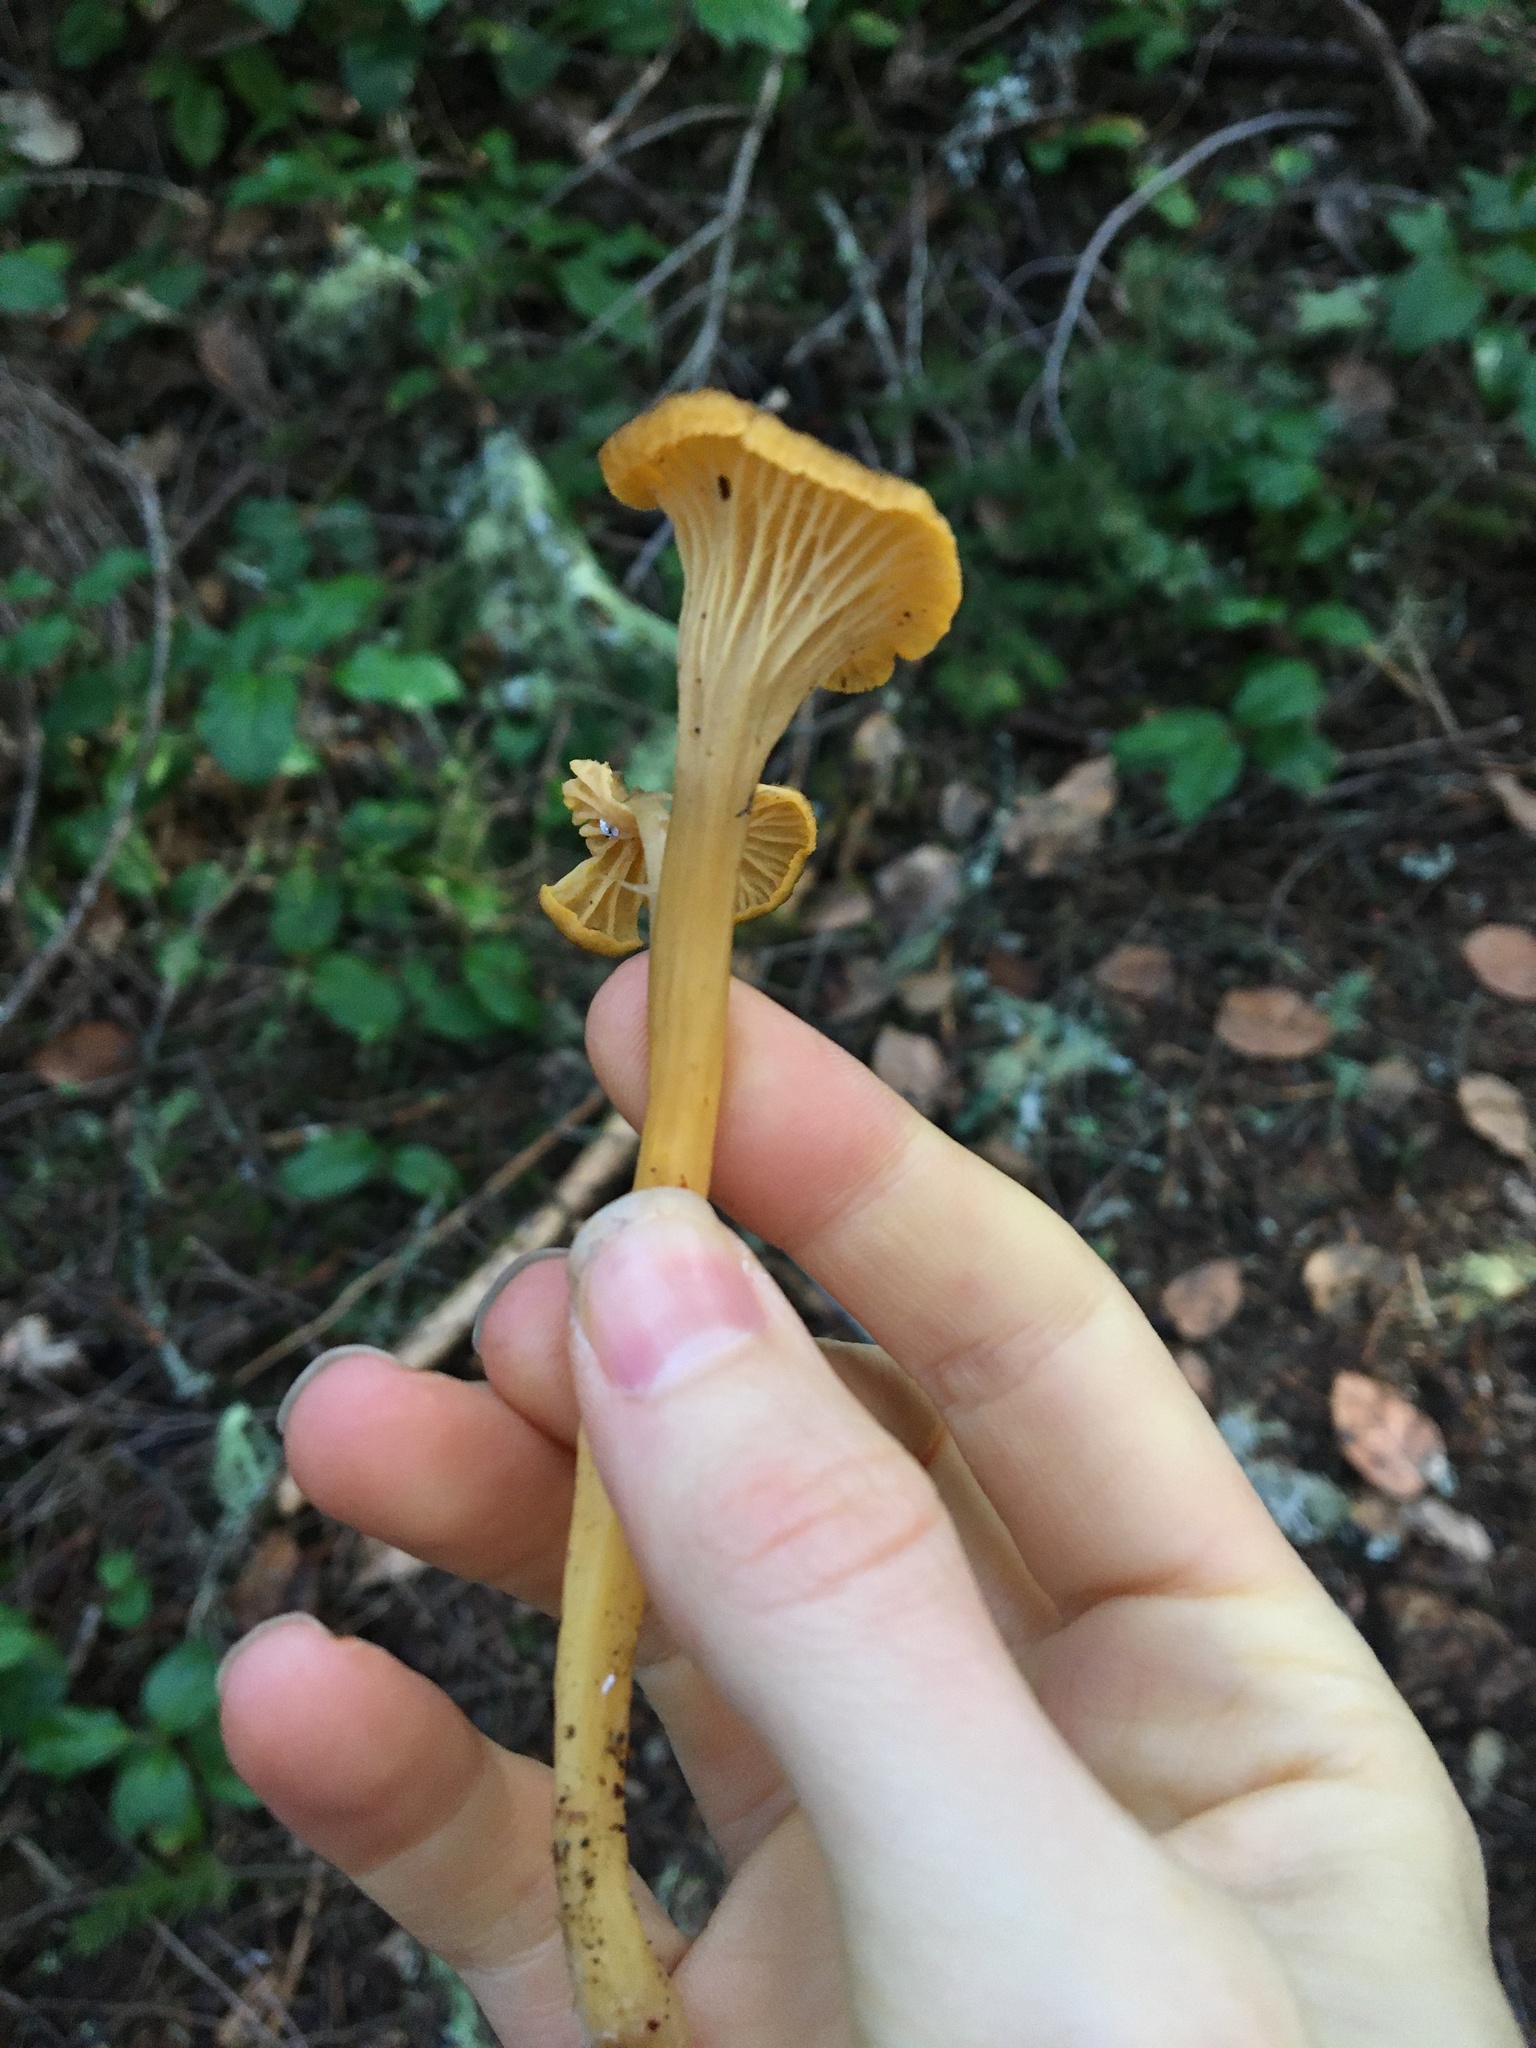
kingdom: Fungi
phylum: Basidiomycota
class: Agaricomycetes
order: Cantharellales
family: Hydnaceae
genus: Craterellus
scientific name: Craterellus tubaeformis
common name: Yellowfoot
